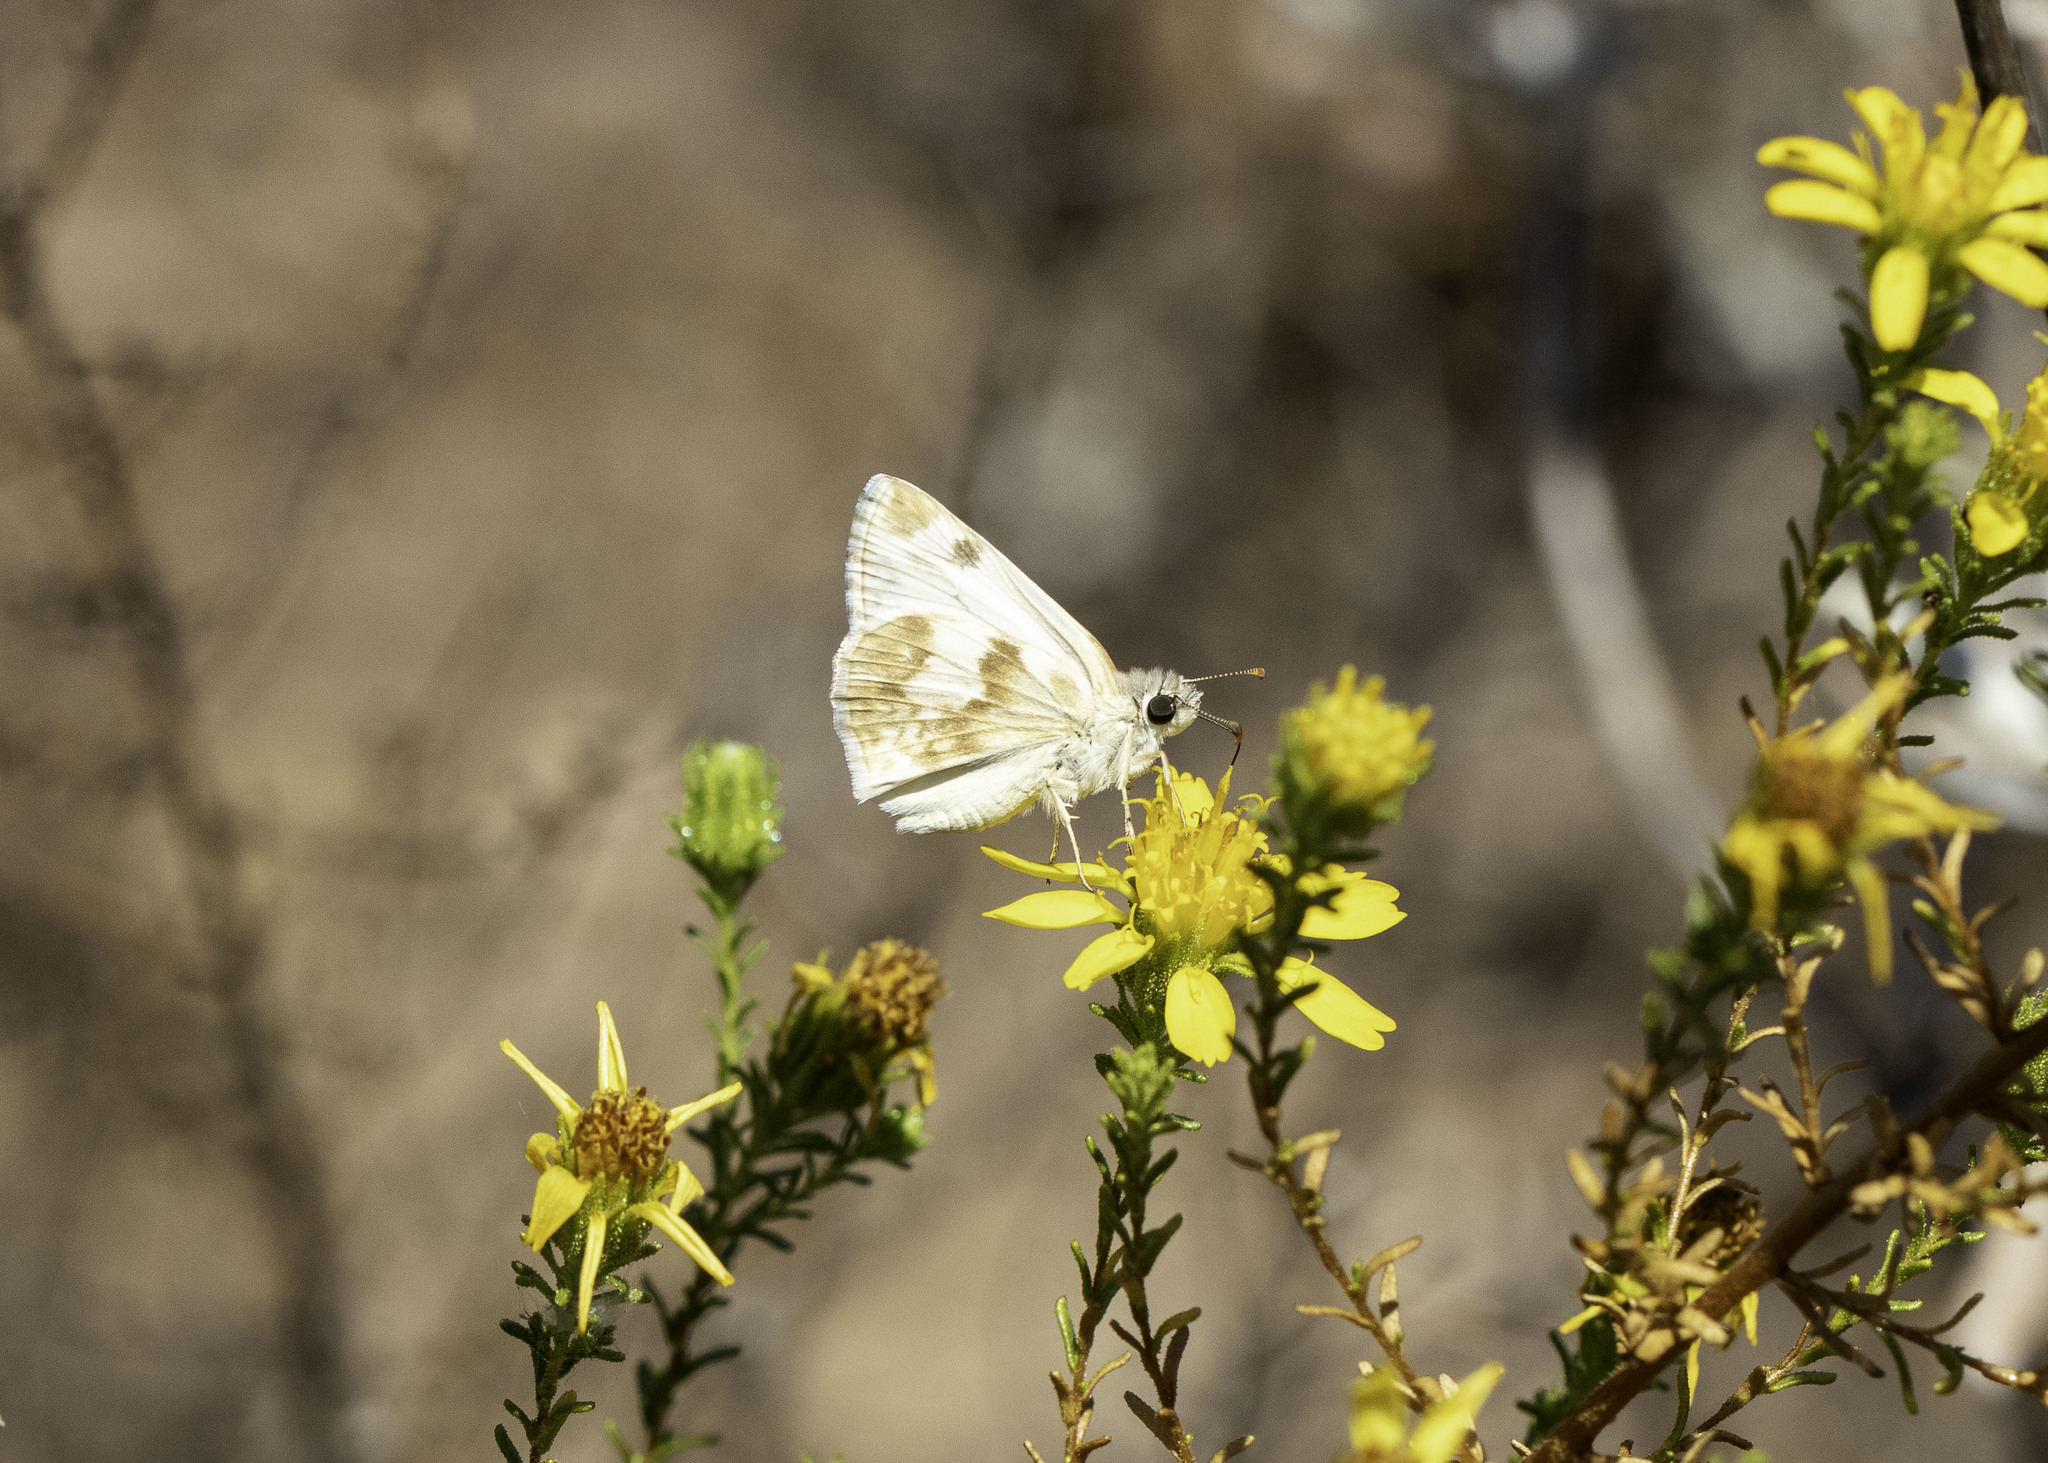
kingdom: Animalia
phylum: Arthropoda
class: Insecta
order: Lepidoptera
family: Hesperiidae
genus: Heliopetes
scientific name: Heliopetes ericetorum
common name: Northern white-skipper
